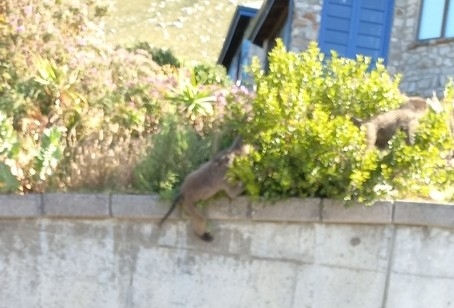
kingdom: Animalia
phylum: Chordata
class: Mammalia
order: Primates
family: Cercopithecidae
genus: Papio
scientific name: Papio ursinus
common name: Chacma baboon
